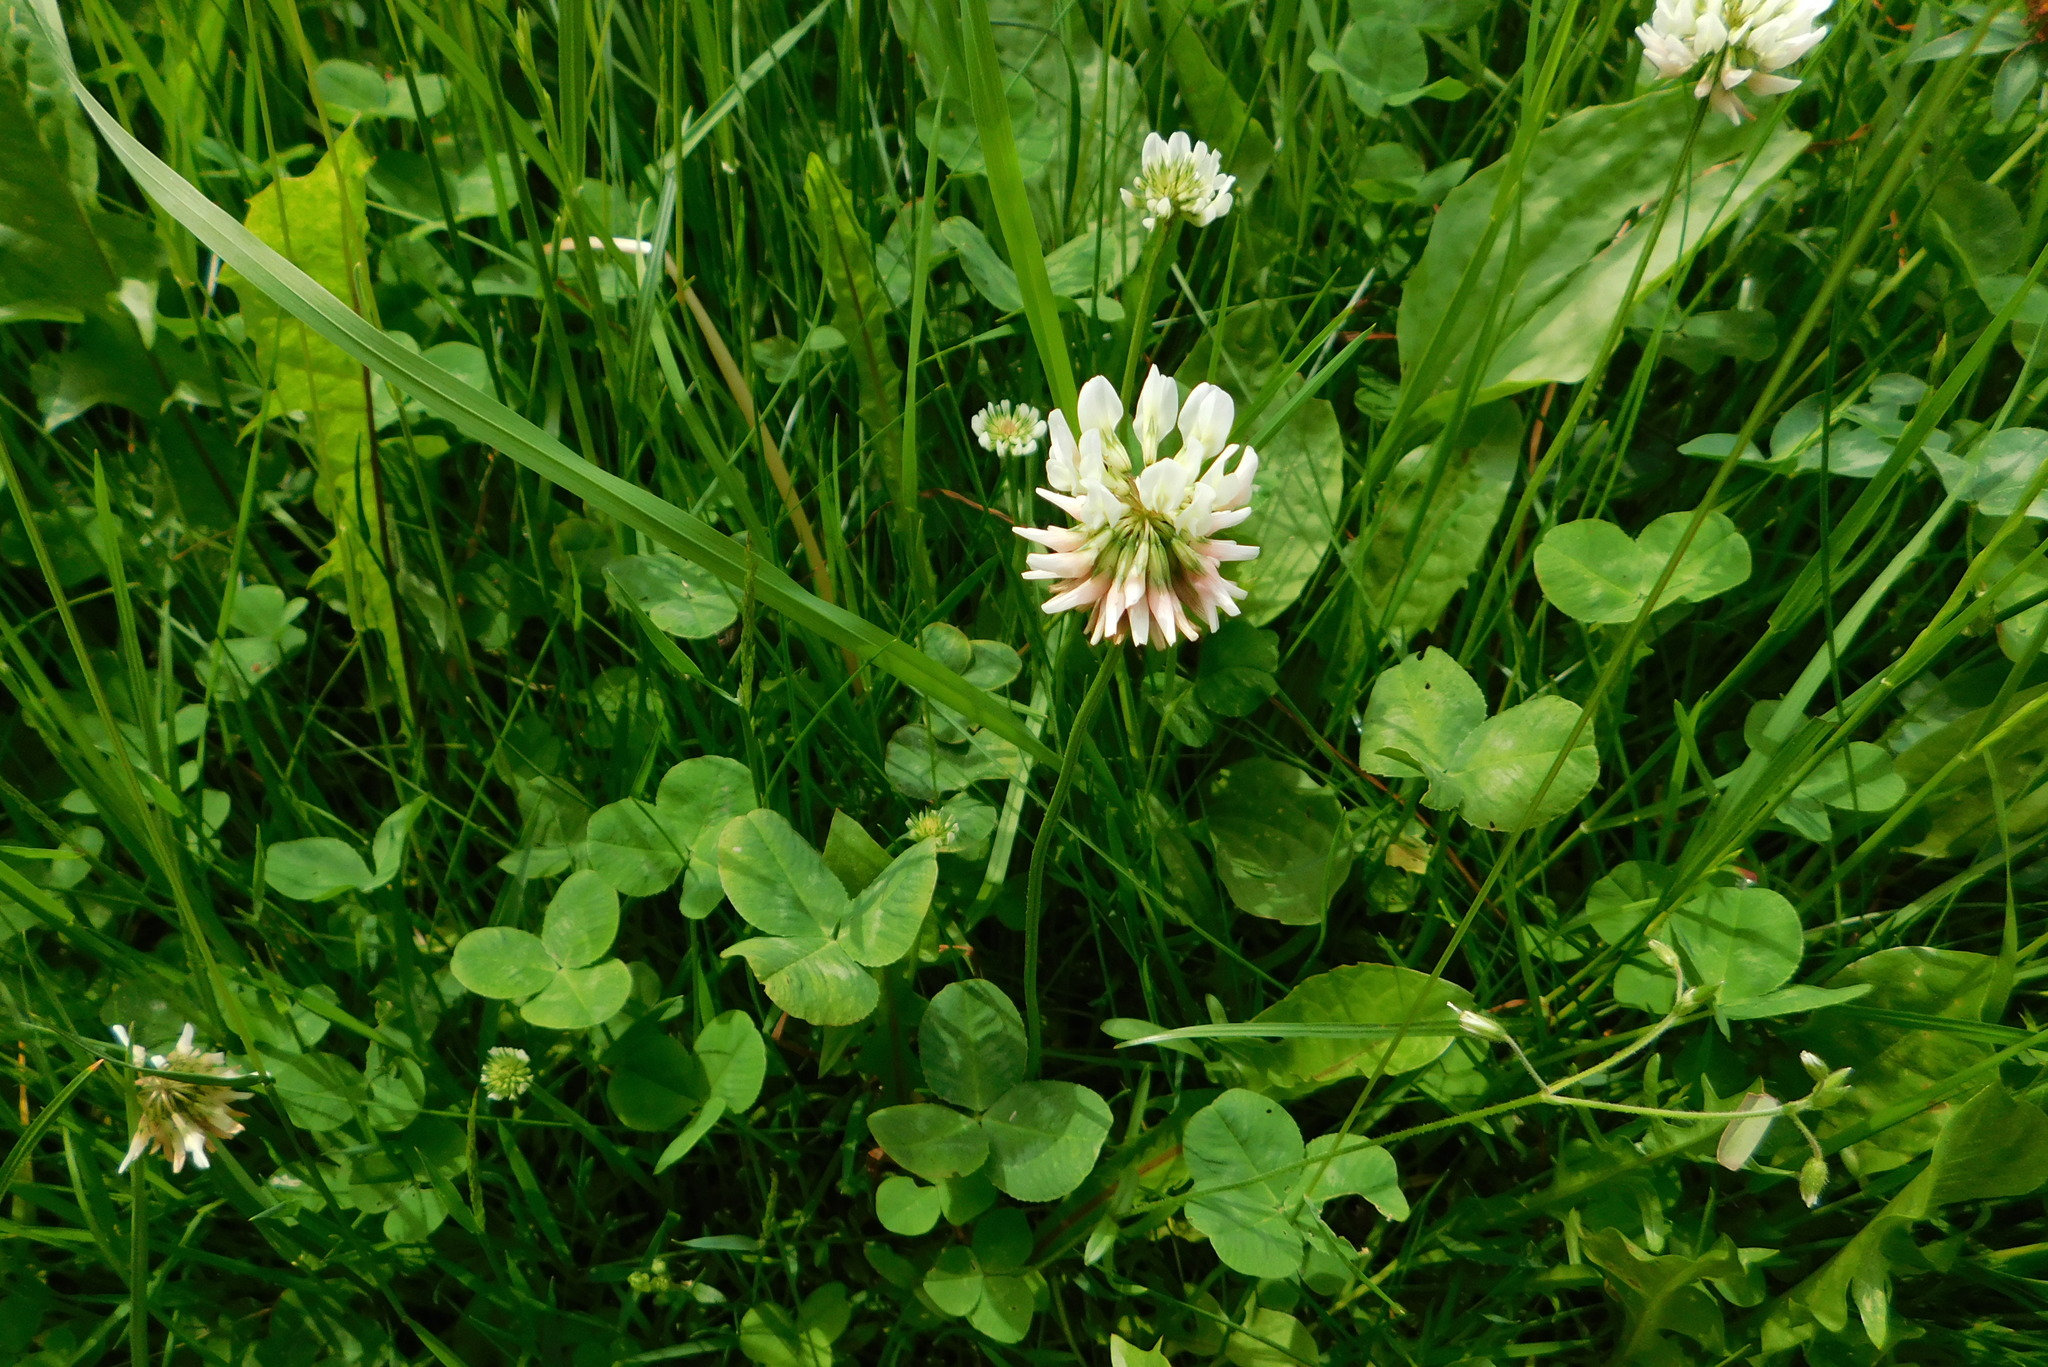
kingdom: Plantae
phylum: Tracheophyta
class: Magnoliopsida
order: Fabales
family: Fabaceae
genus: Trifolium
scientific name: Trifolium repens
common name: White clover
